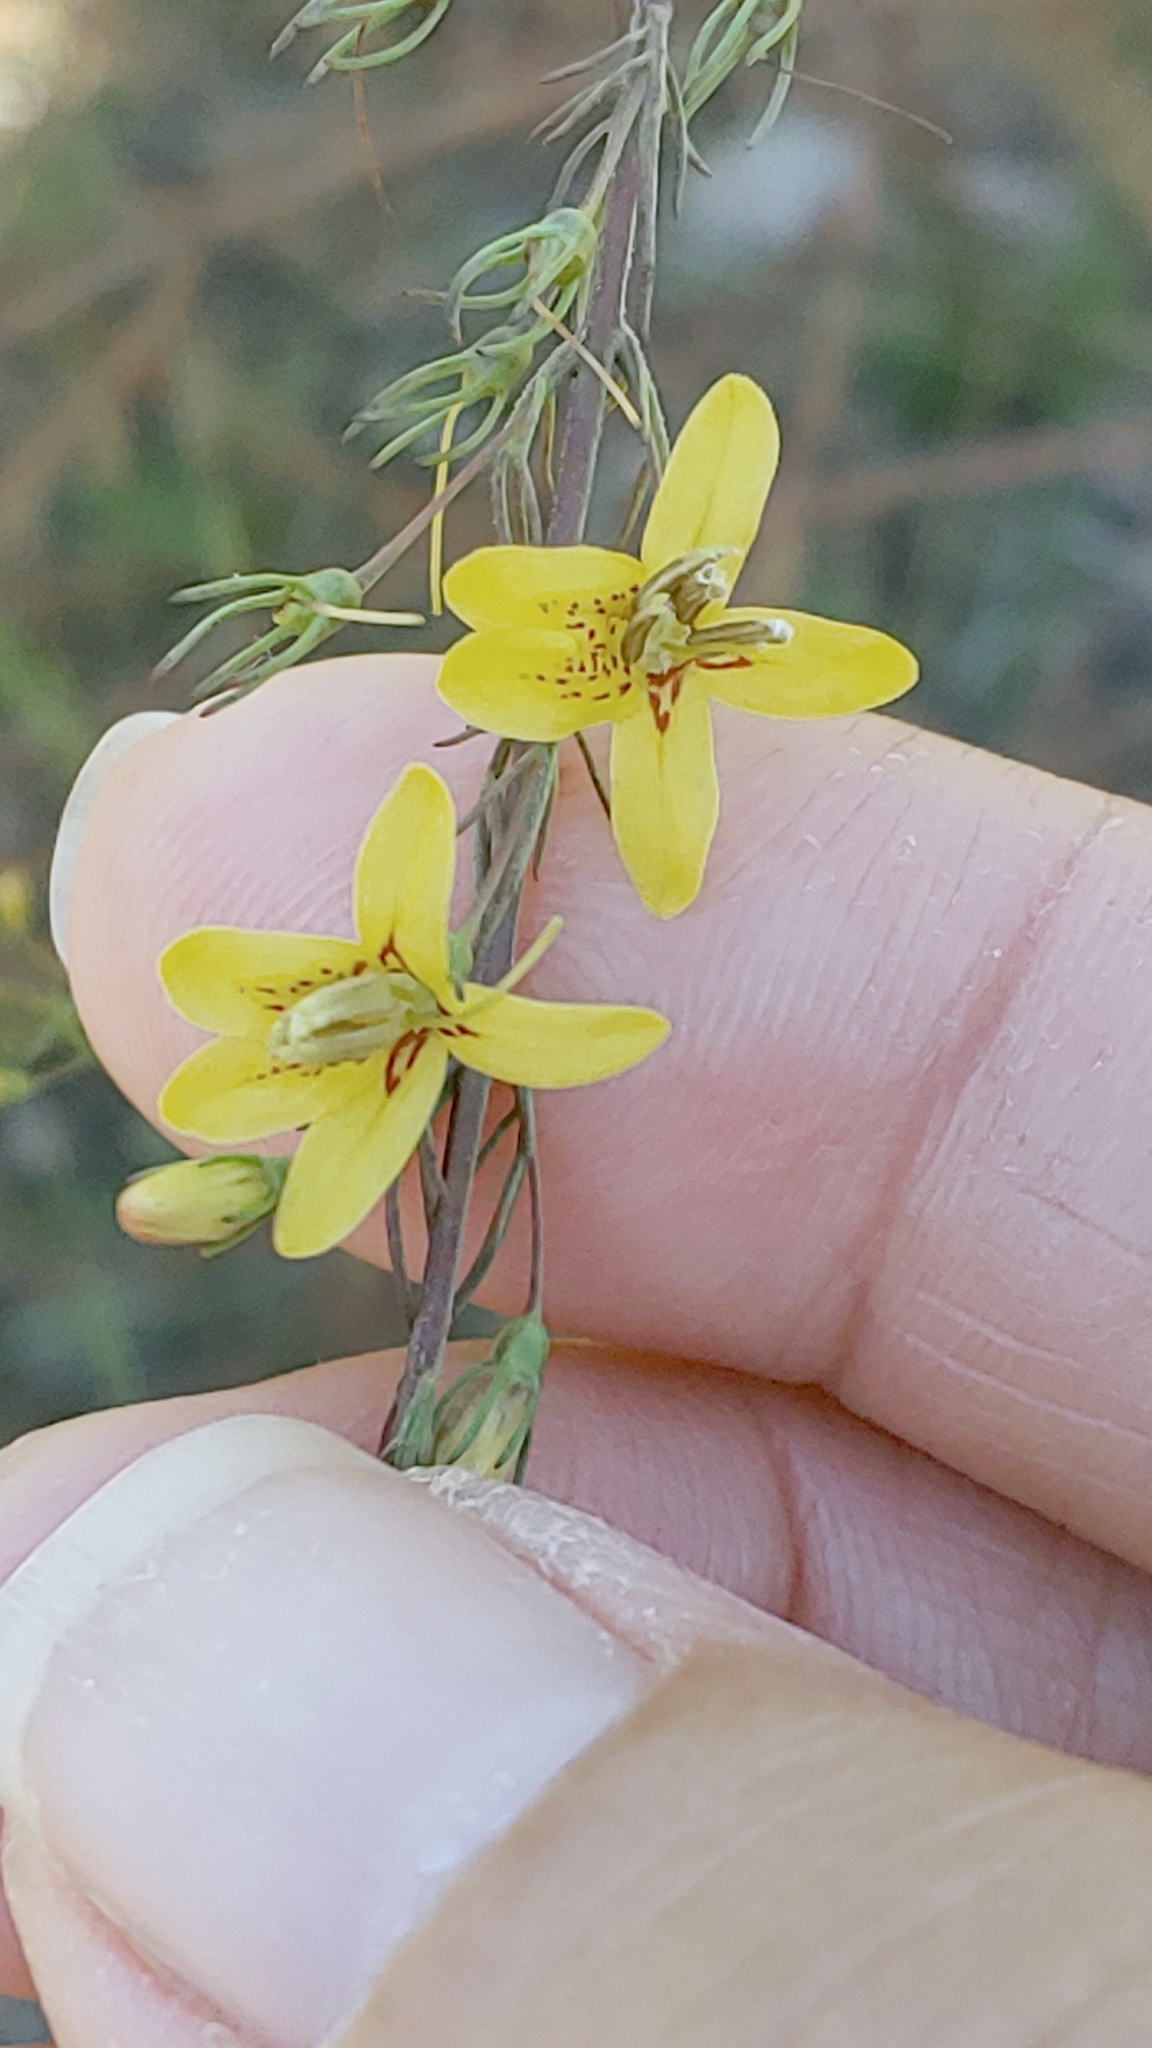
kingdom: Plantae
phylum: Tracheophyta
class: Magnoliopsida
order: Lamiales
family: Orobanchaceae
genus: Seymeria
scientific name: Seymeria cassioides
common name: Yaupon black-senna
